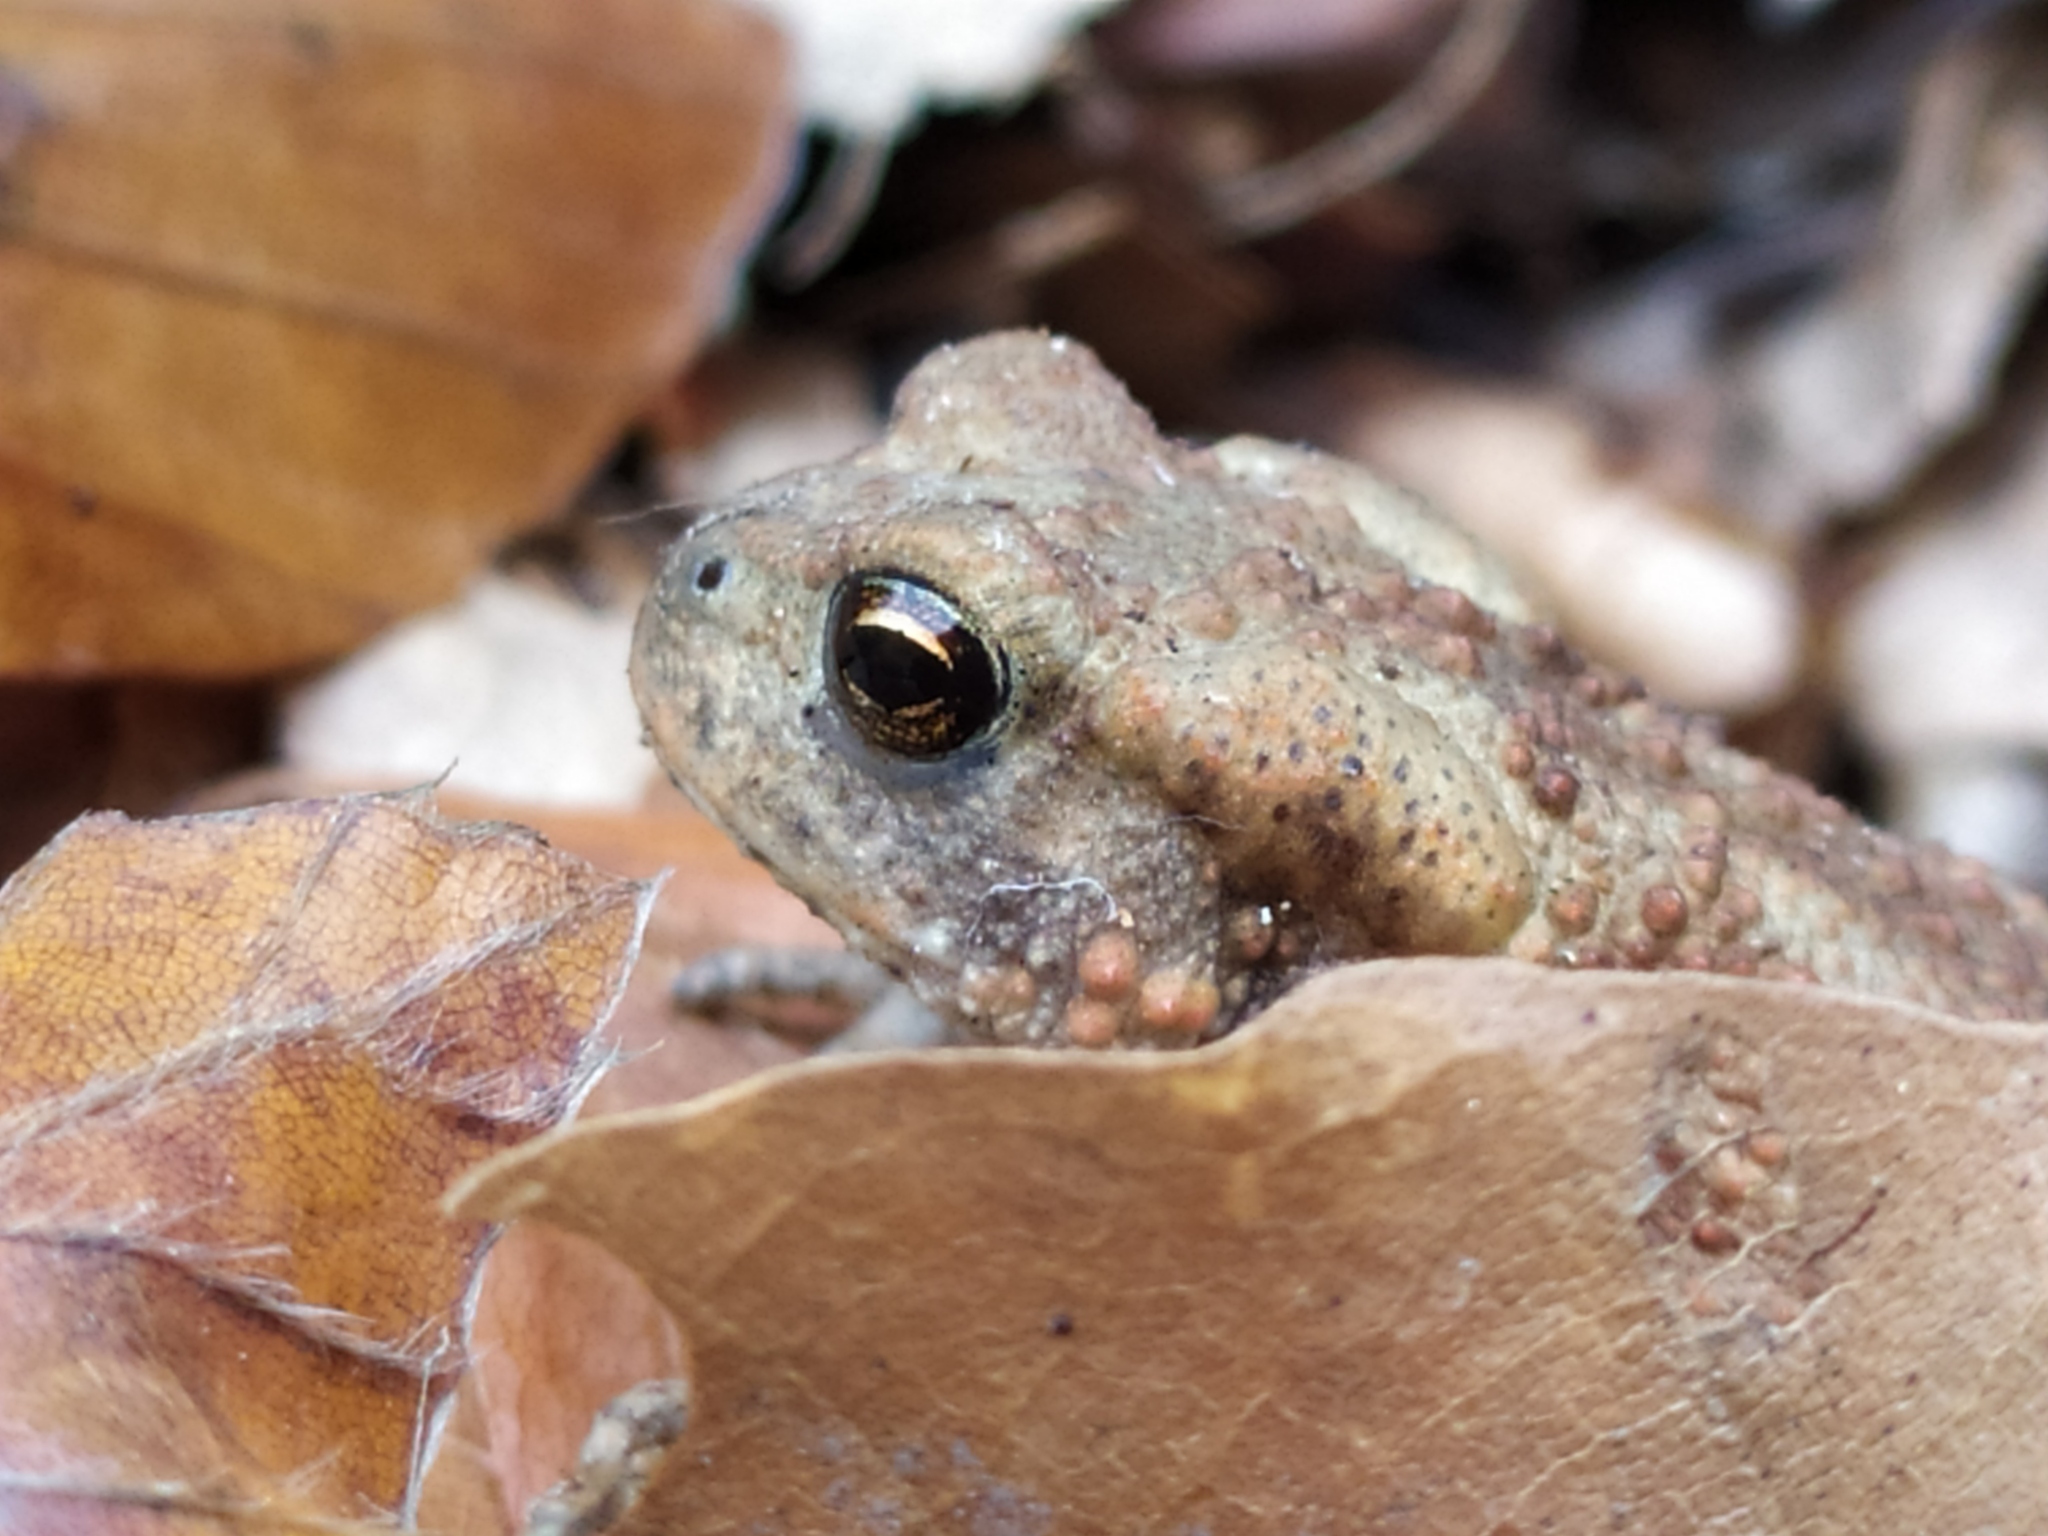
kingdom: Animalia
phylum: Chordata
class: Amphibia
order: Anura
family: Bufonidae
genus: Bufo
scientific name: Bufo bufo
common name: Common toad
